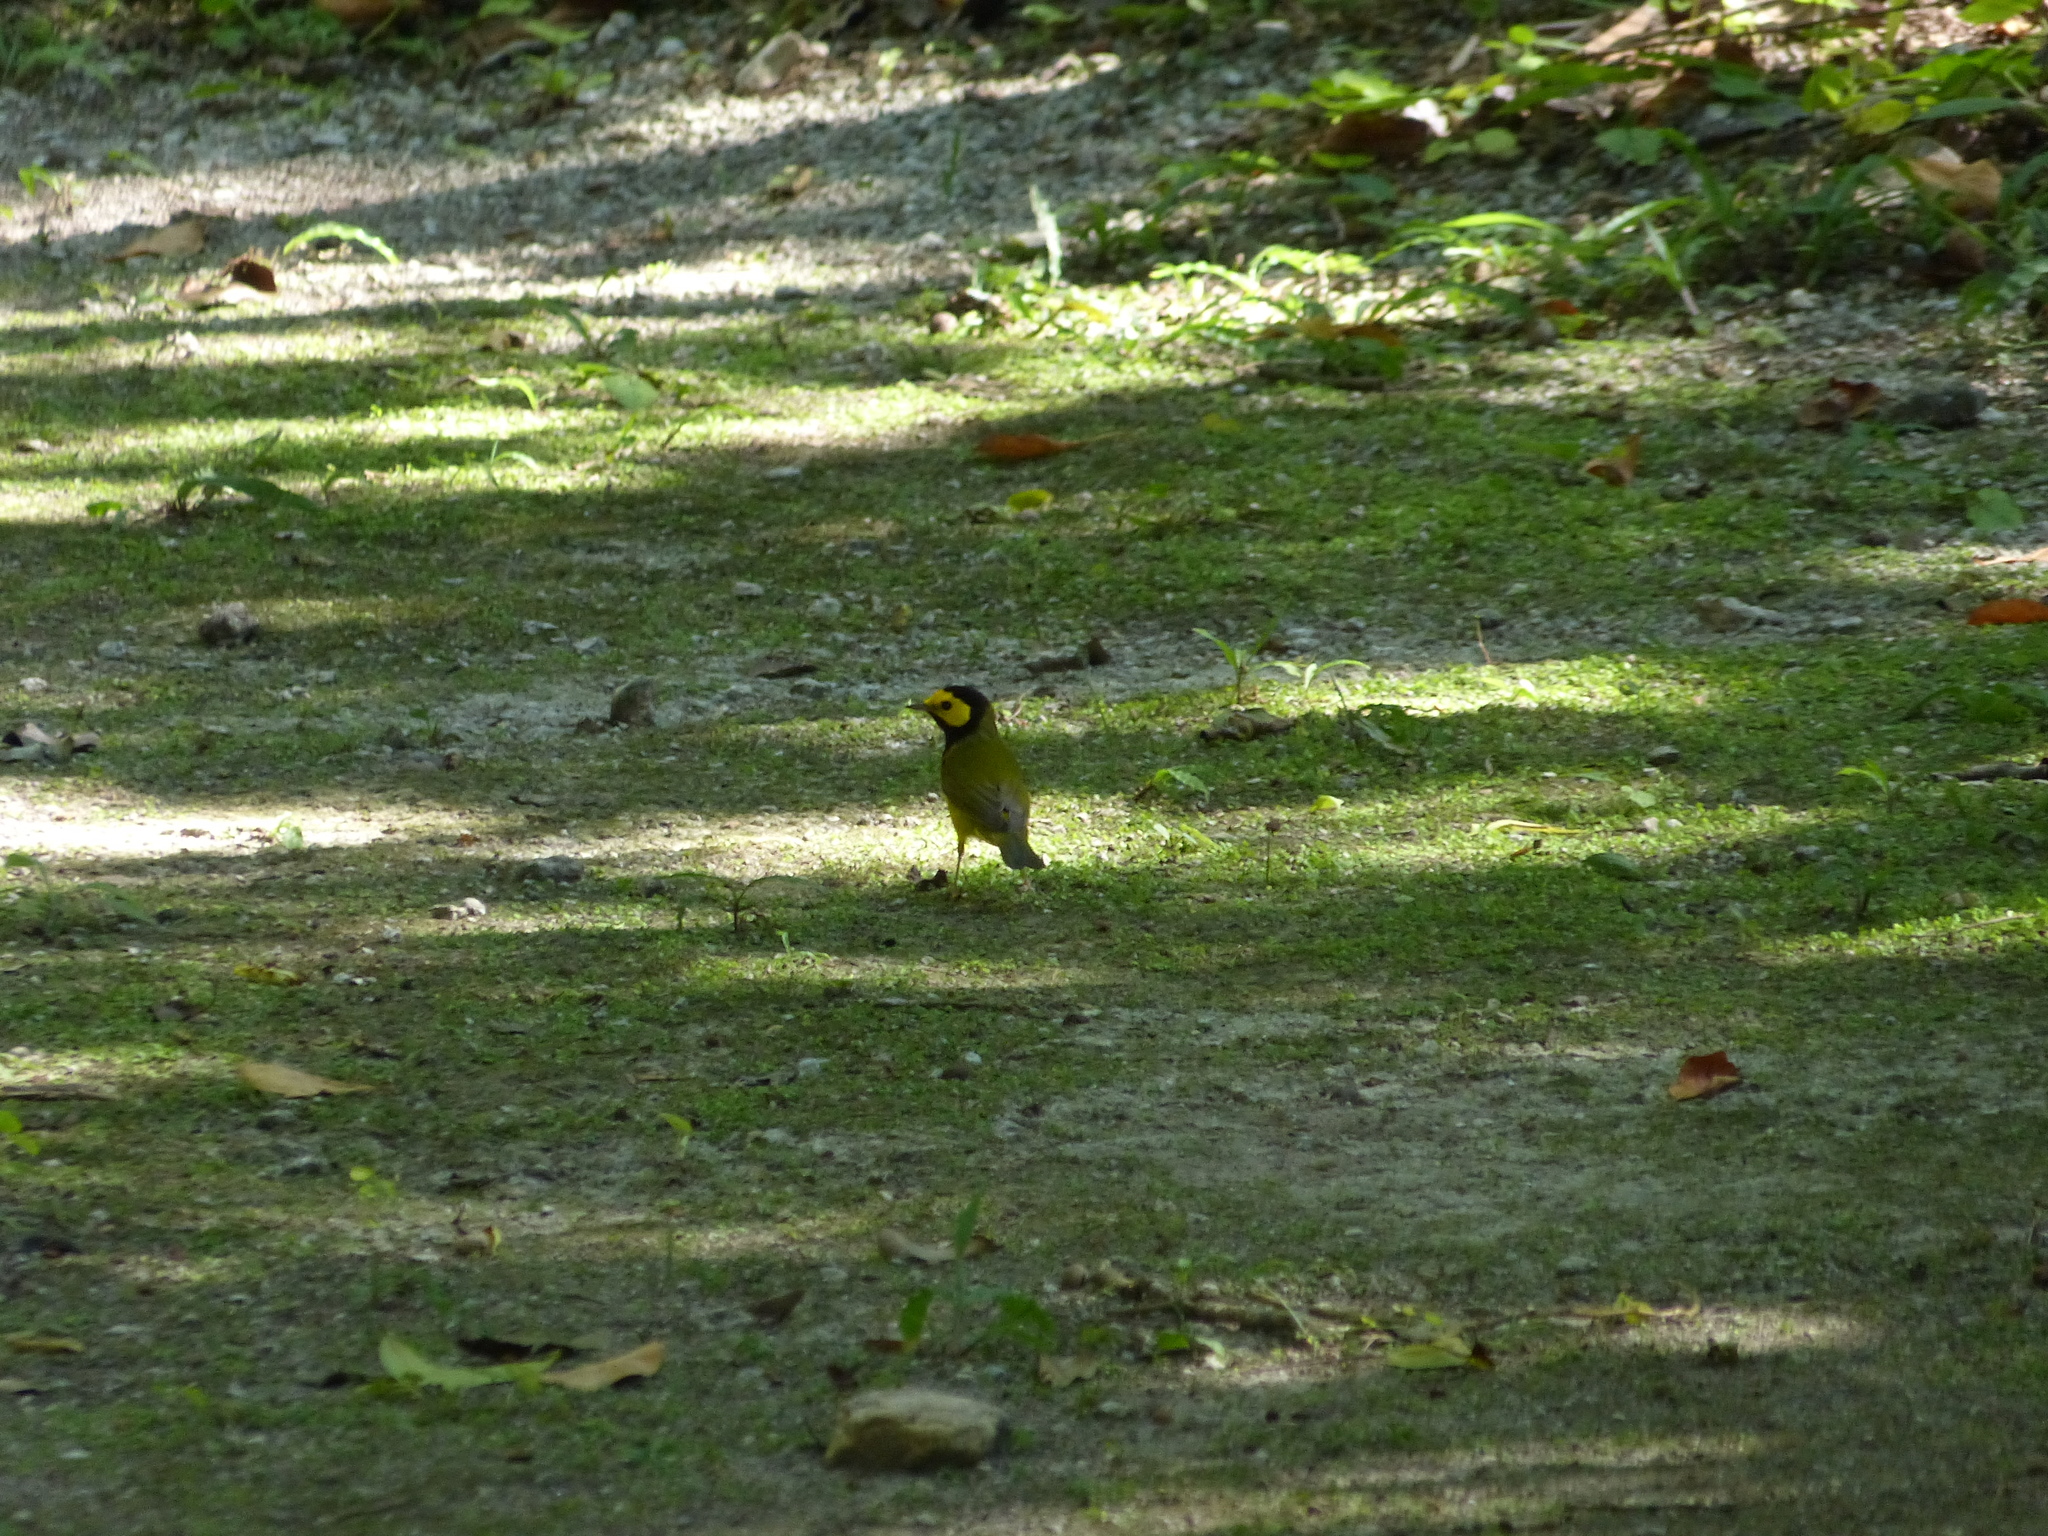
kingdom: Animalia
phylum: Chordata
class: Aves
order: Passeriformes
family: Parulidae
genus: Setophaga
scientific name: Setophaga citrina
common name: Hooded warbler
